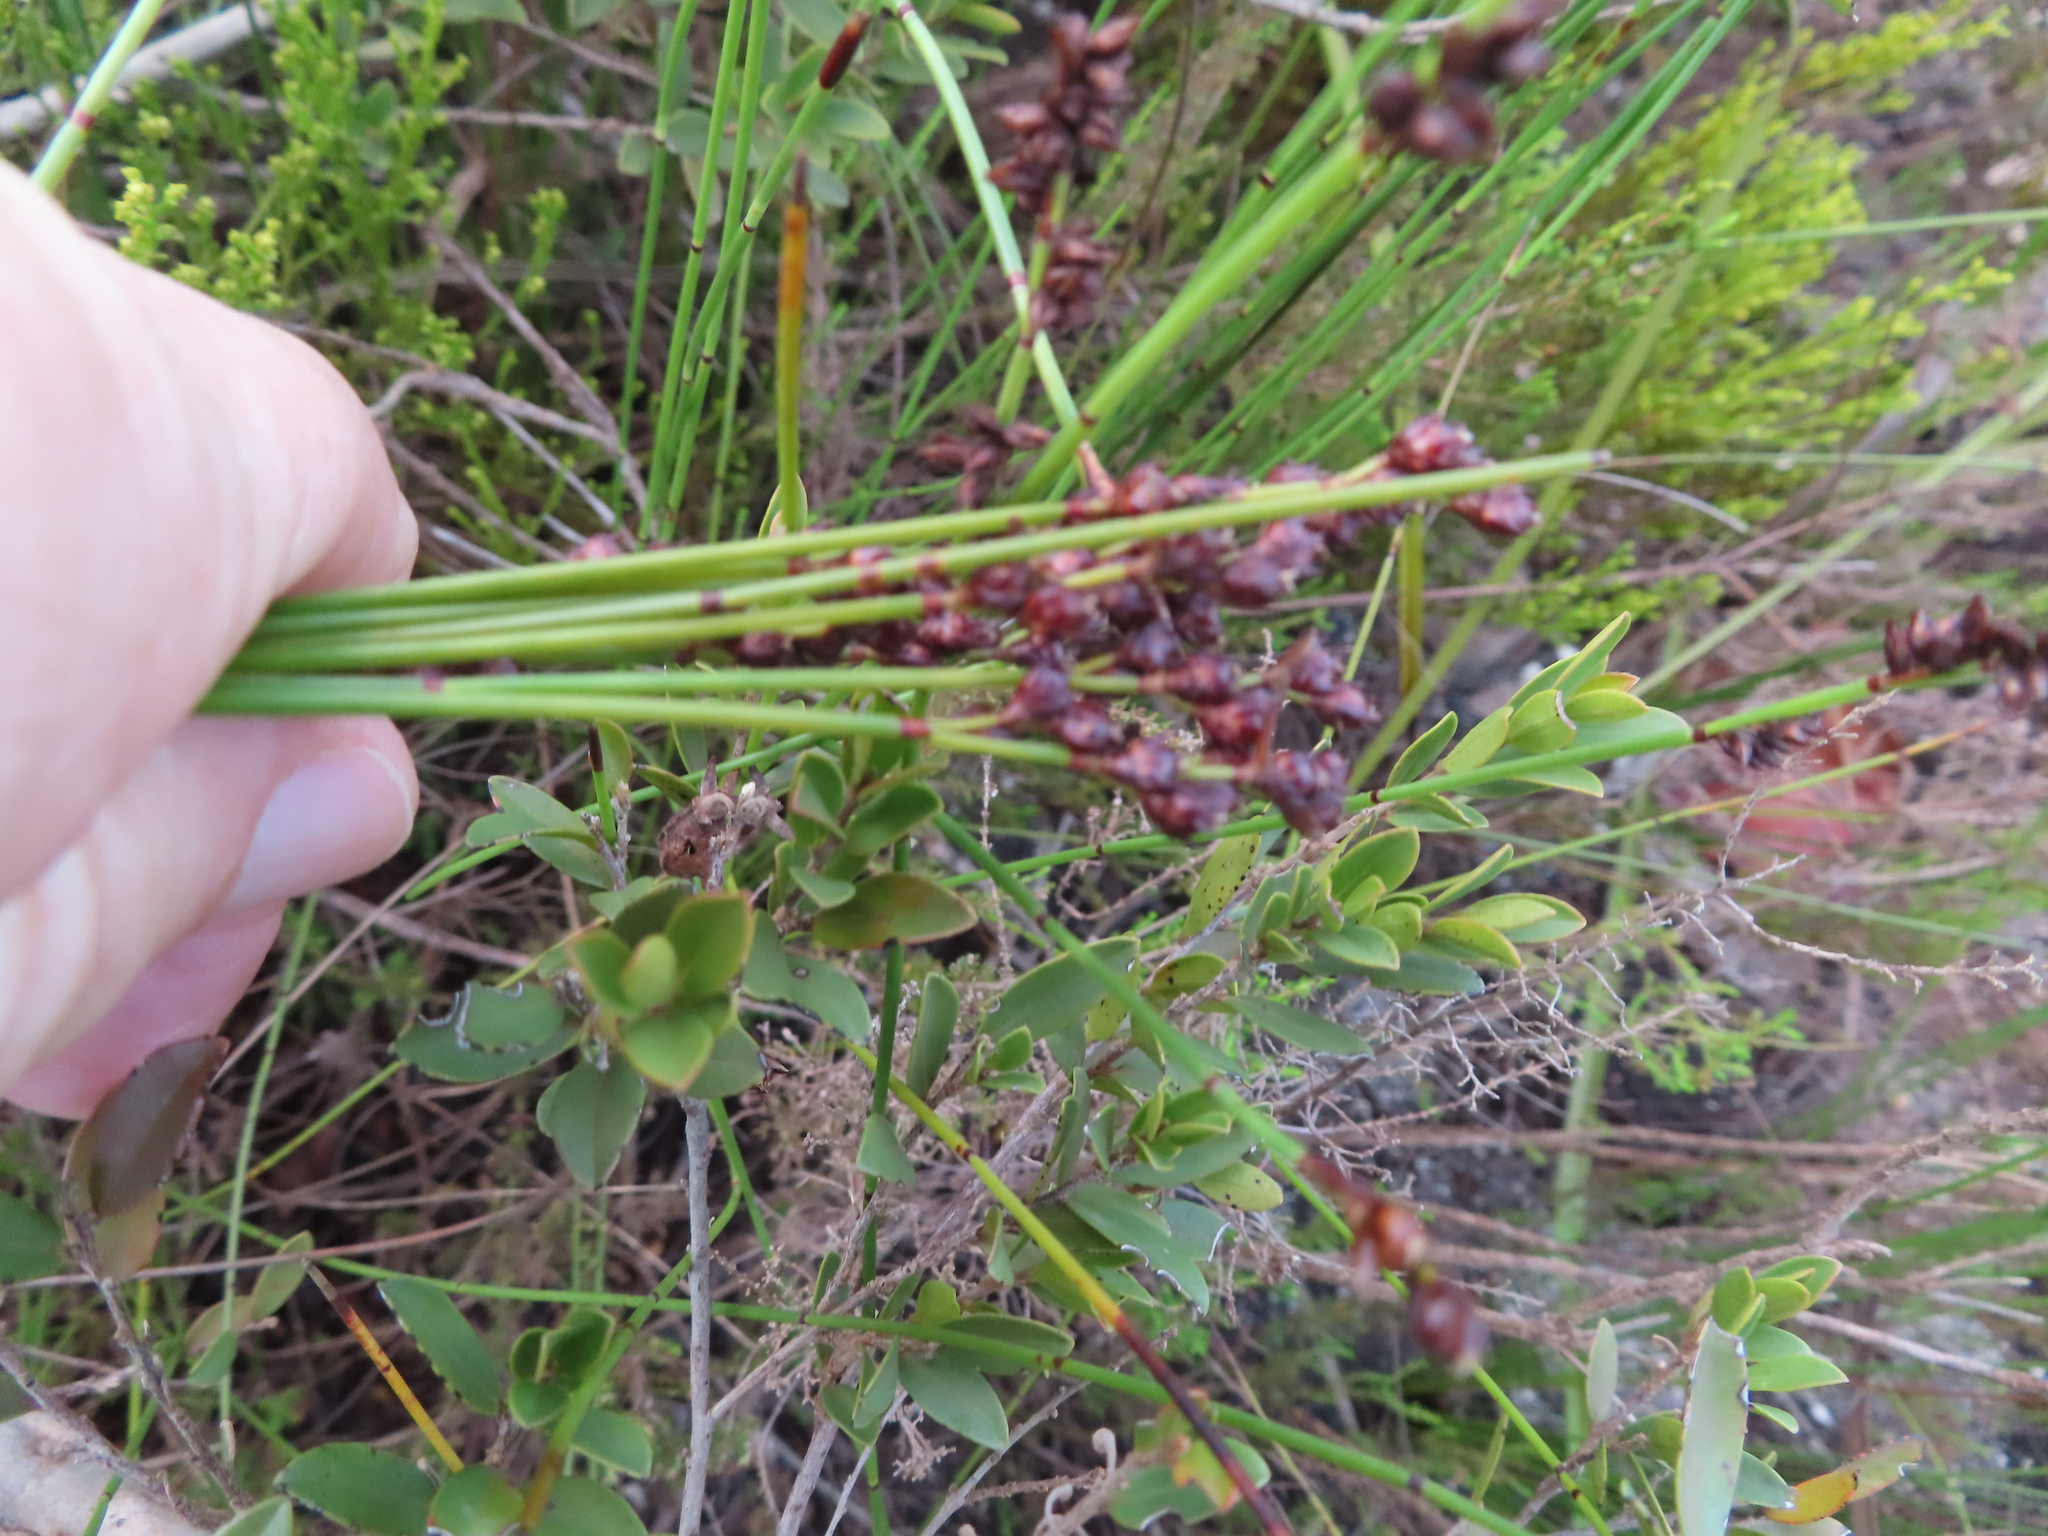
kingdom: Plantae
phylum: Tracheophyta
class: Liliopsida
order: Poales
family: Restionaceae
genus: Elegia
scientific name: Elegia ebracteata
